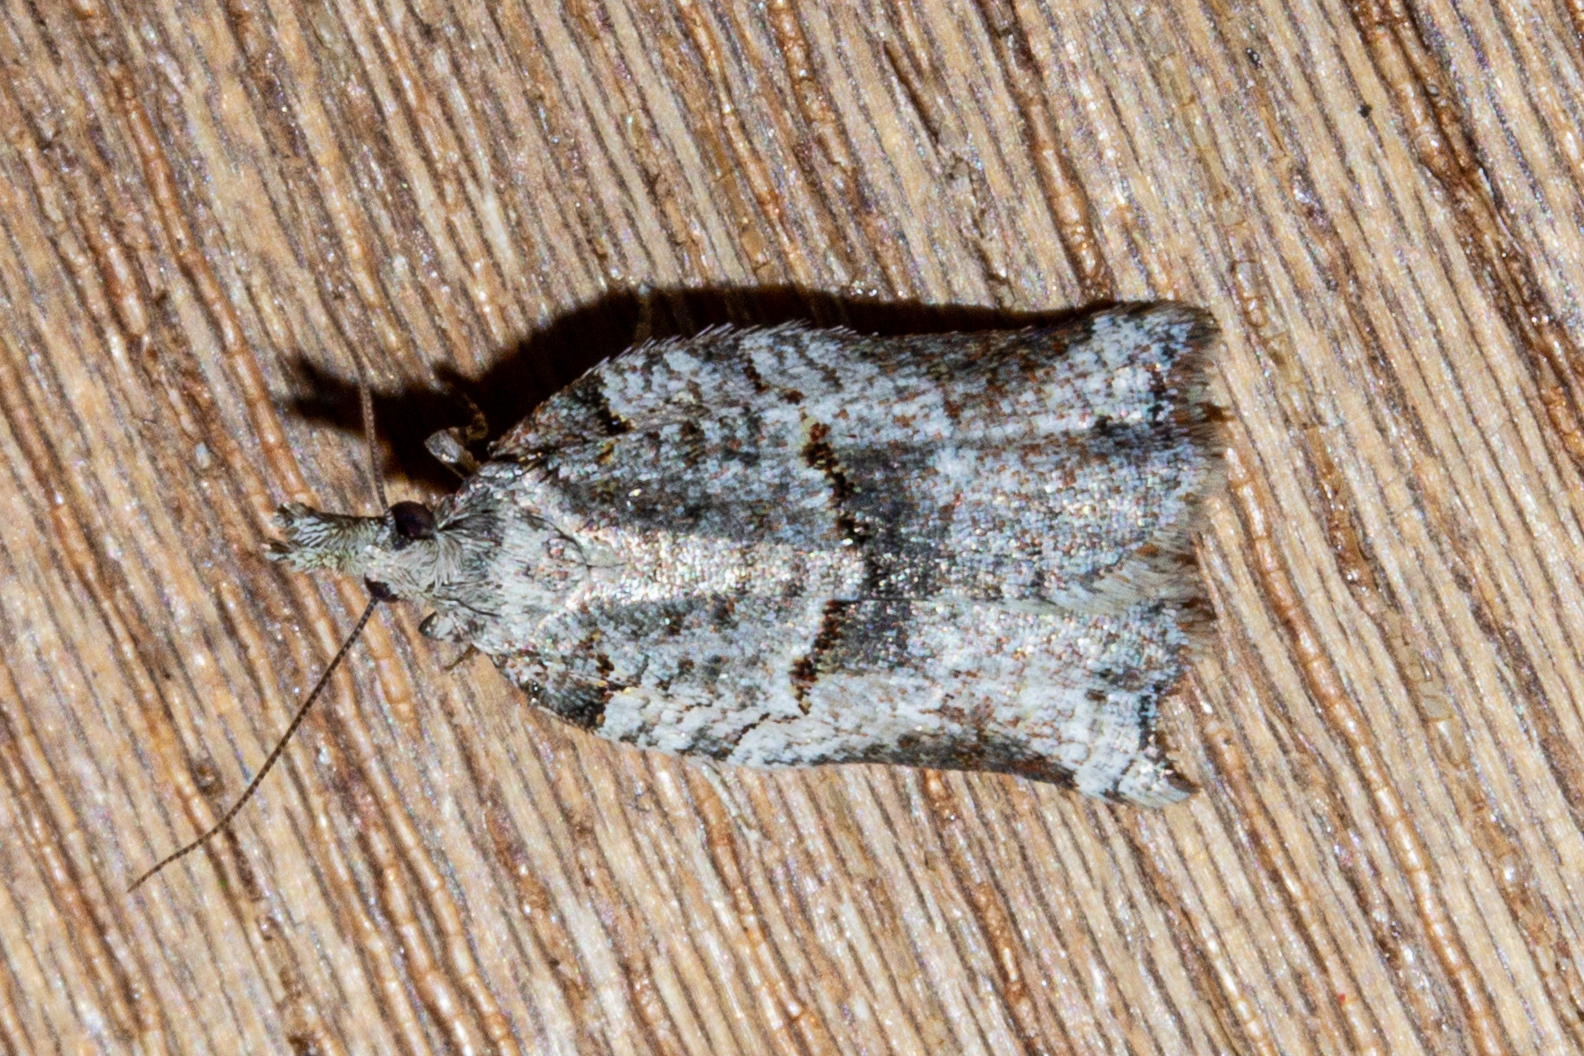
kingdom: Animalia
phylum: Arthropoda
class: Insecta
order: Lepidoptera
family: Tortricidae
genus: Harmologa
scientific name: Harmologa amplexana
